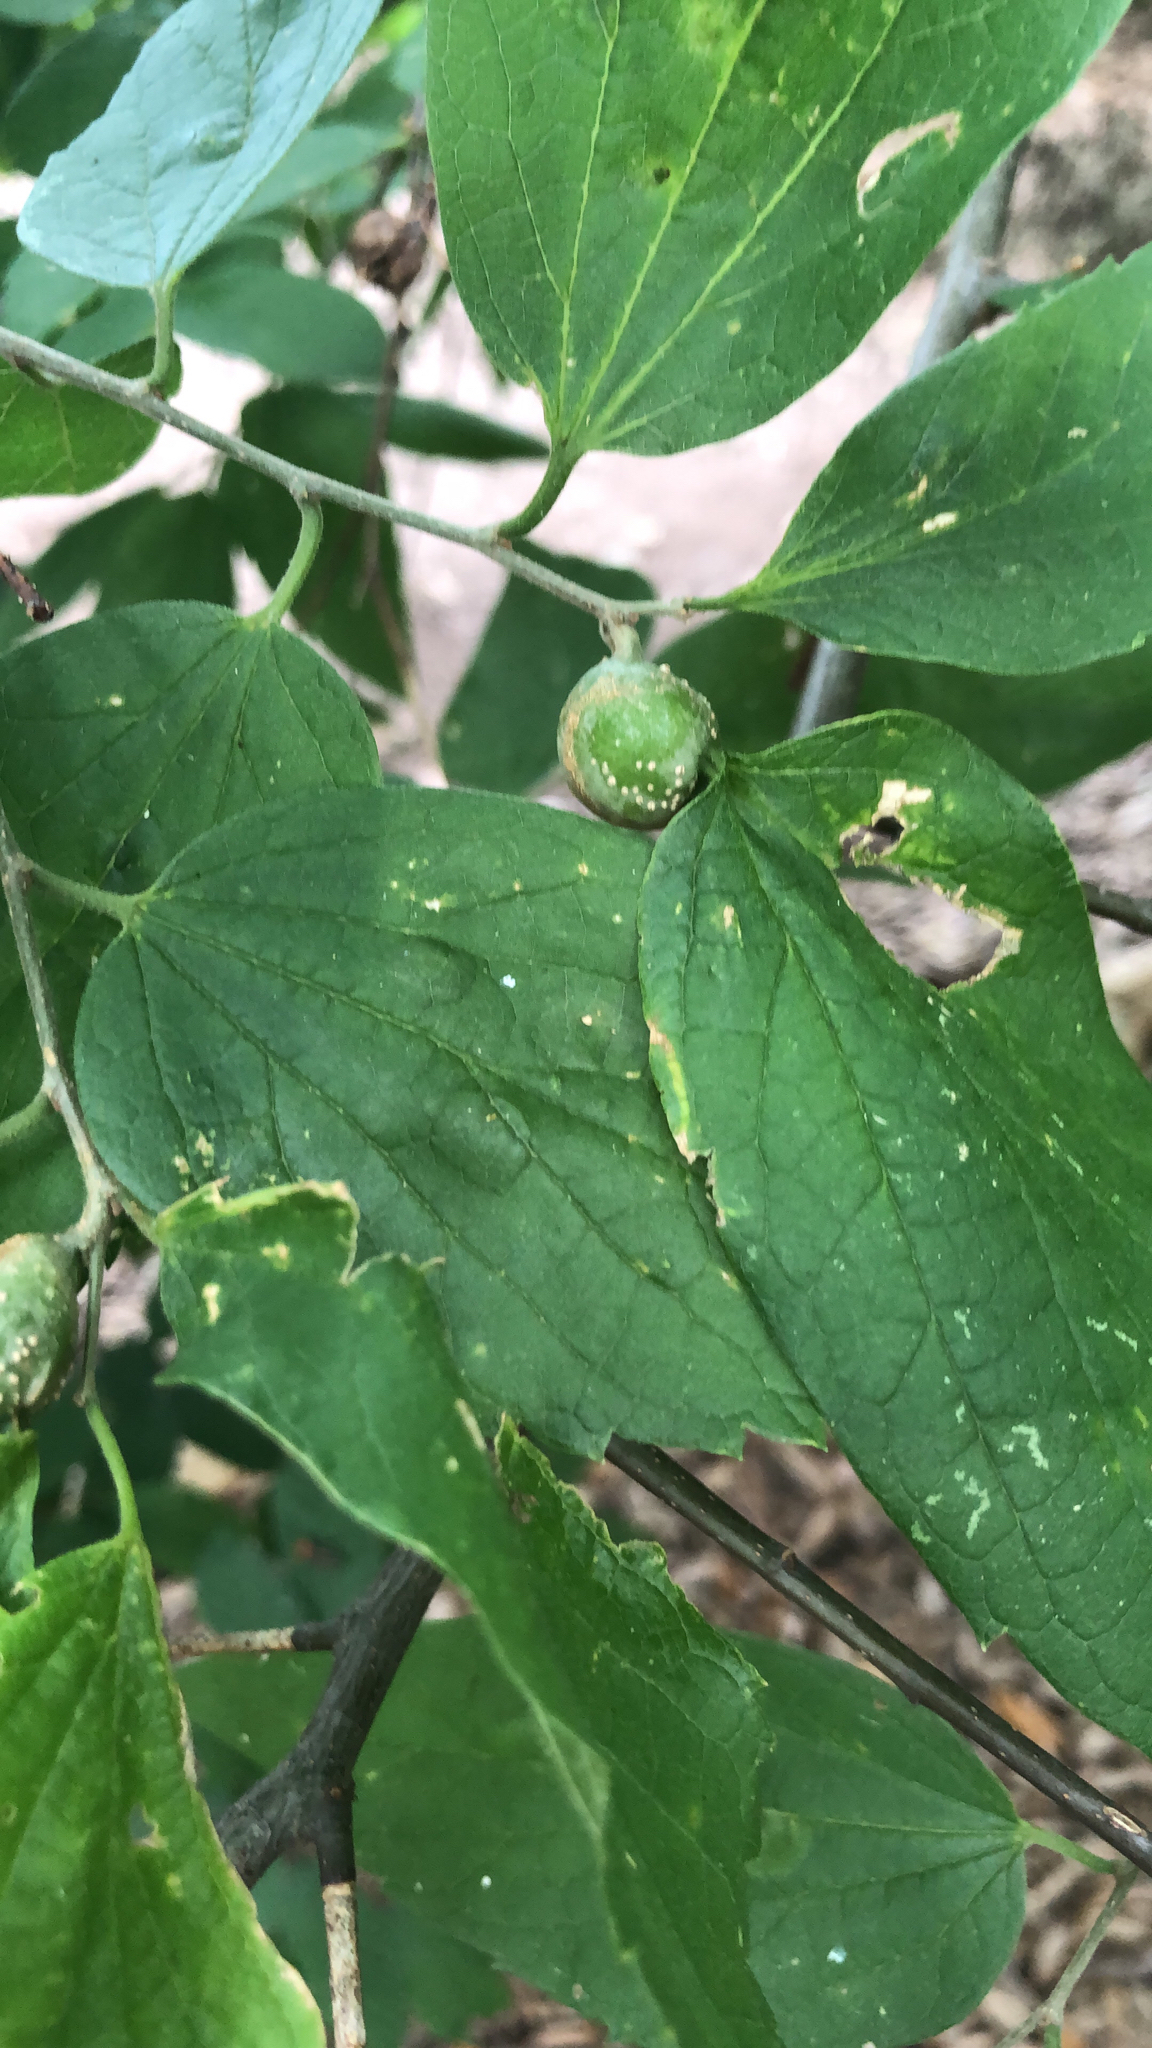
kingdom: Animalia
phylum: Arthropoda
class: Insecta
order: Hemiptera
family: Aphalaridae
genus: Pachypsylla
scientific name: Pachypsylla venusta
